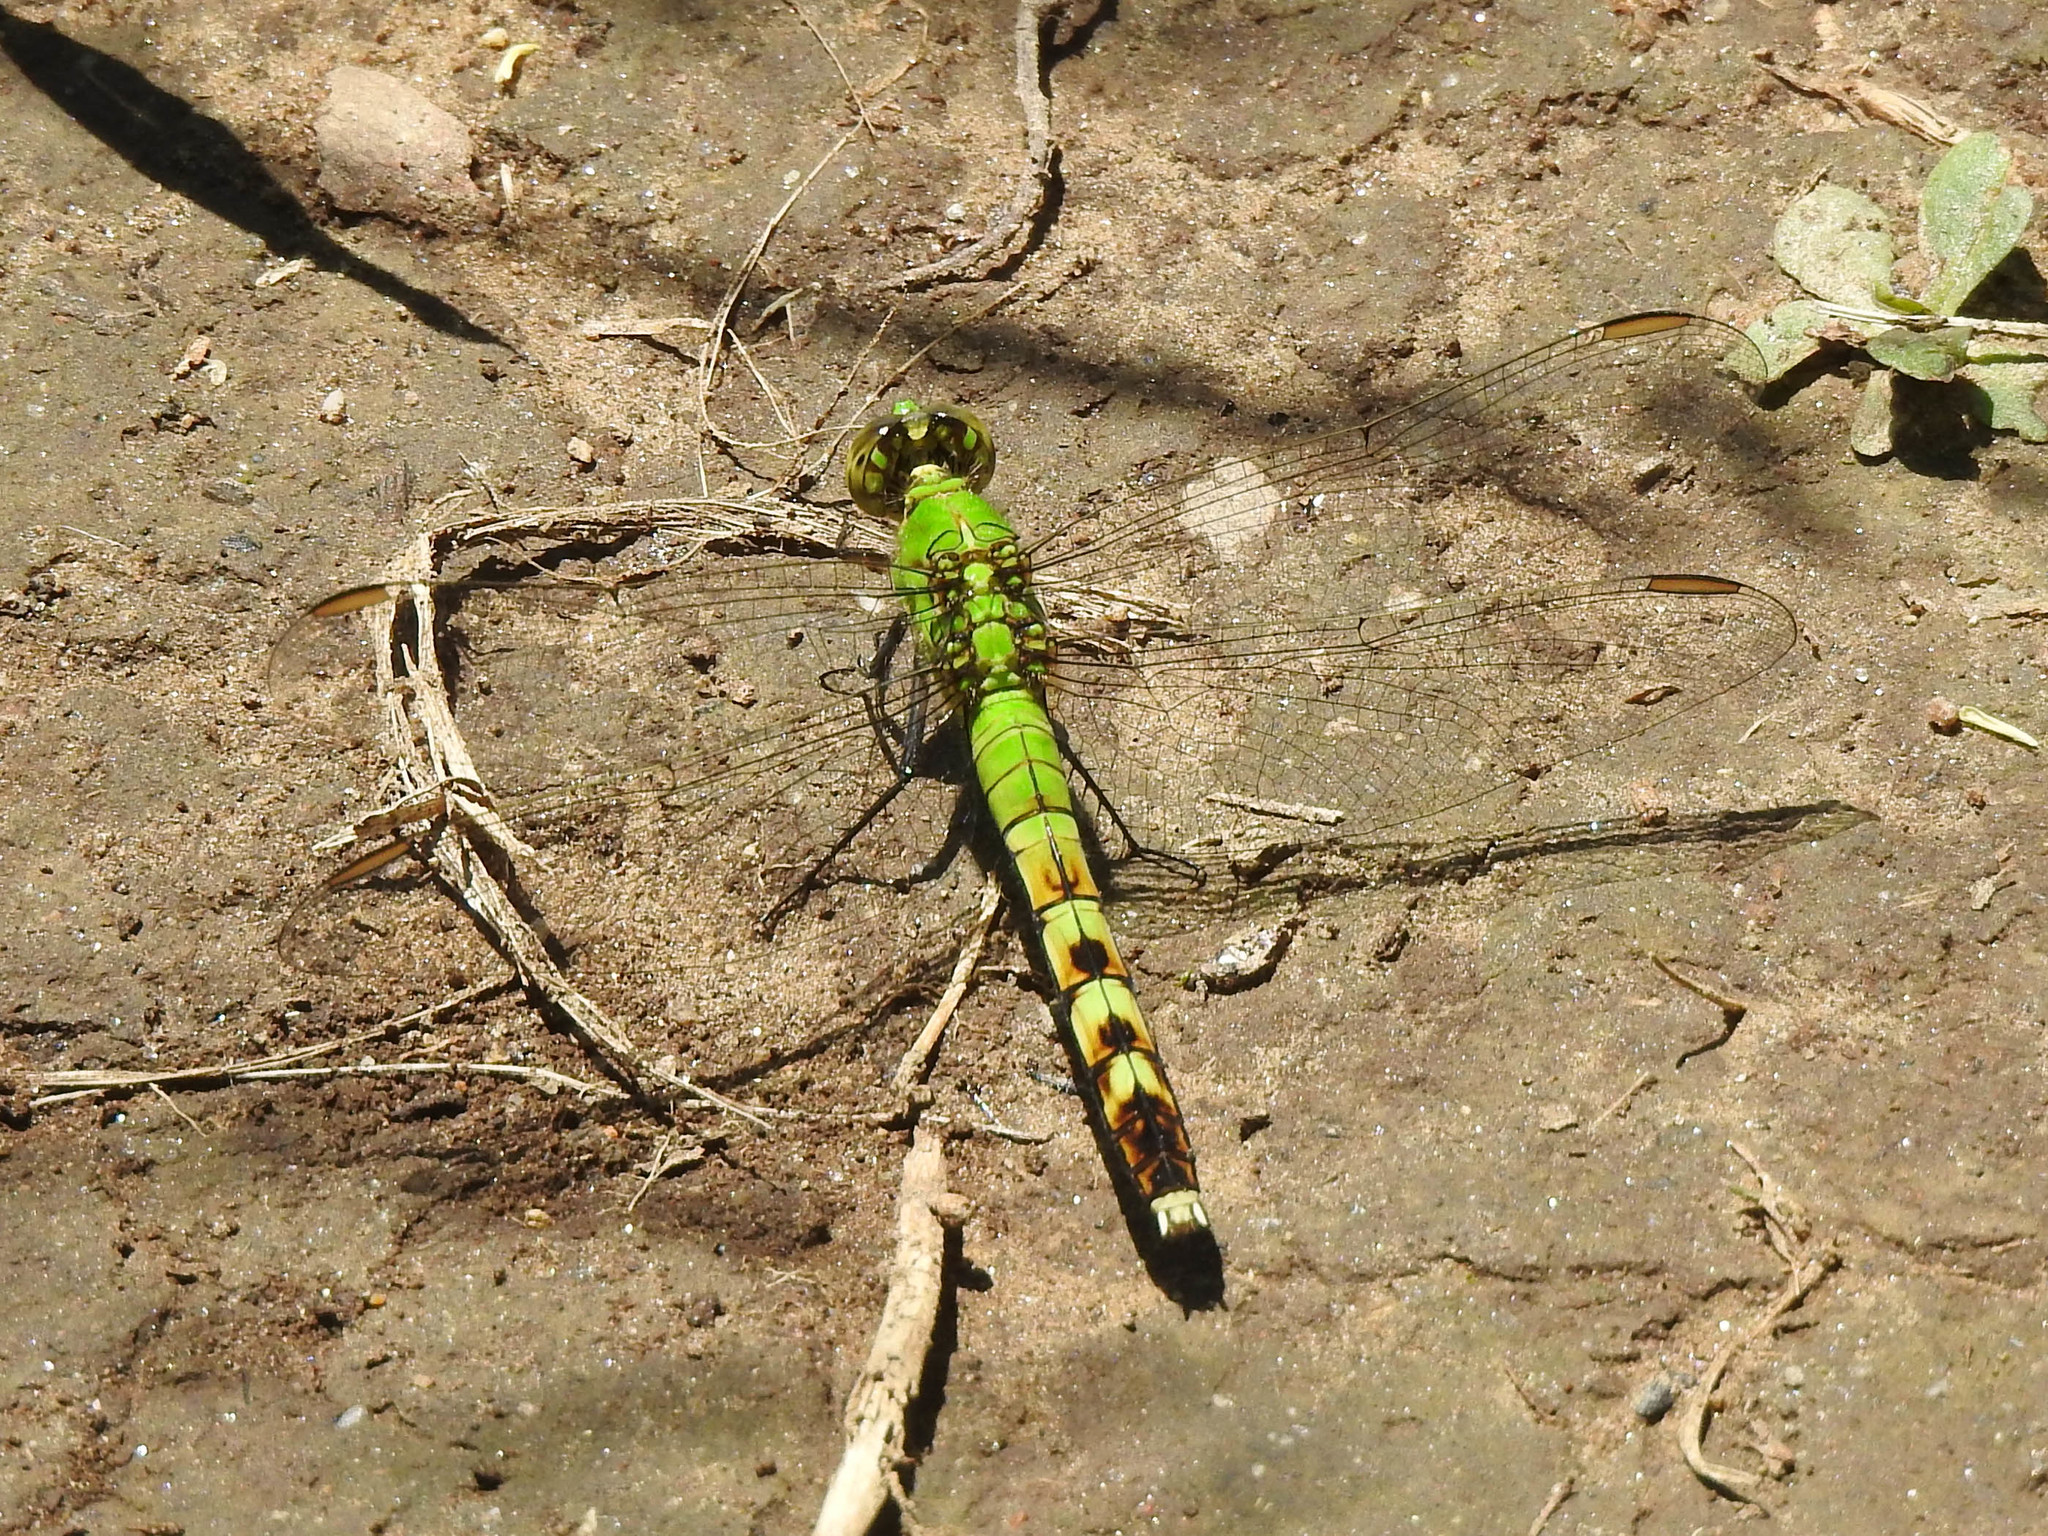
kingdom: Animalia
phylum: Arthropoda
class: Insecta
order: Odonata
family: Libellulidae
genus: Erythemis
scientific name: Erythemis simplicicollis
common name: Eastern pondhawk
